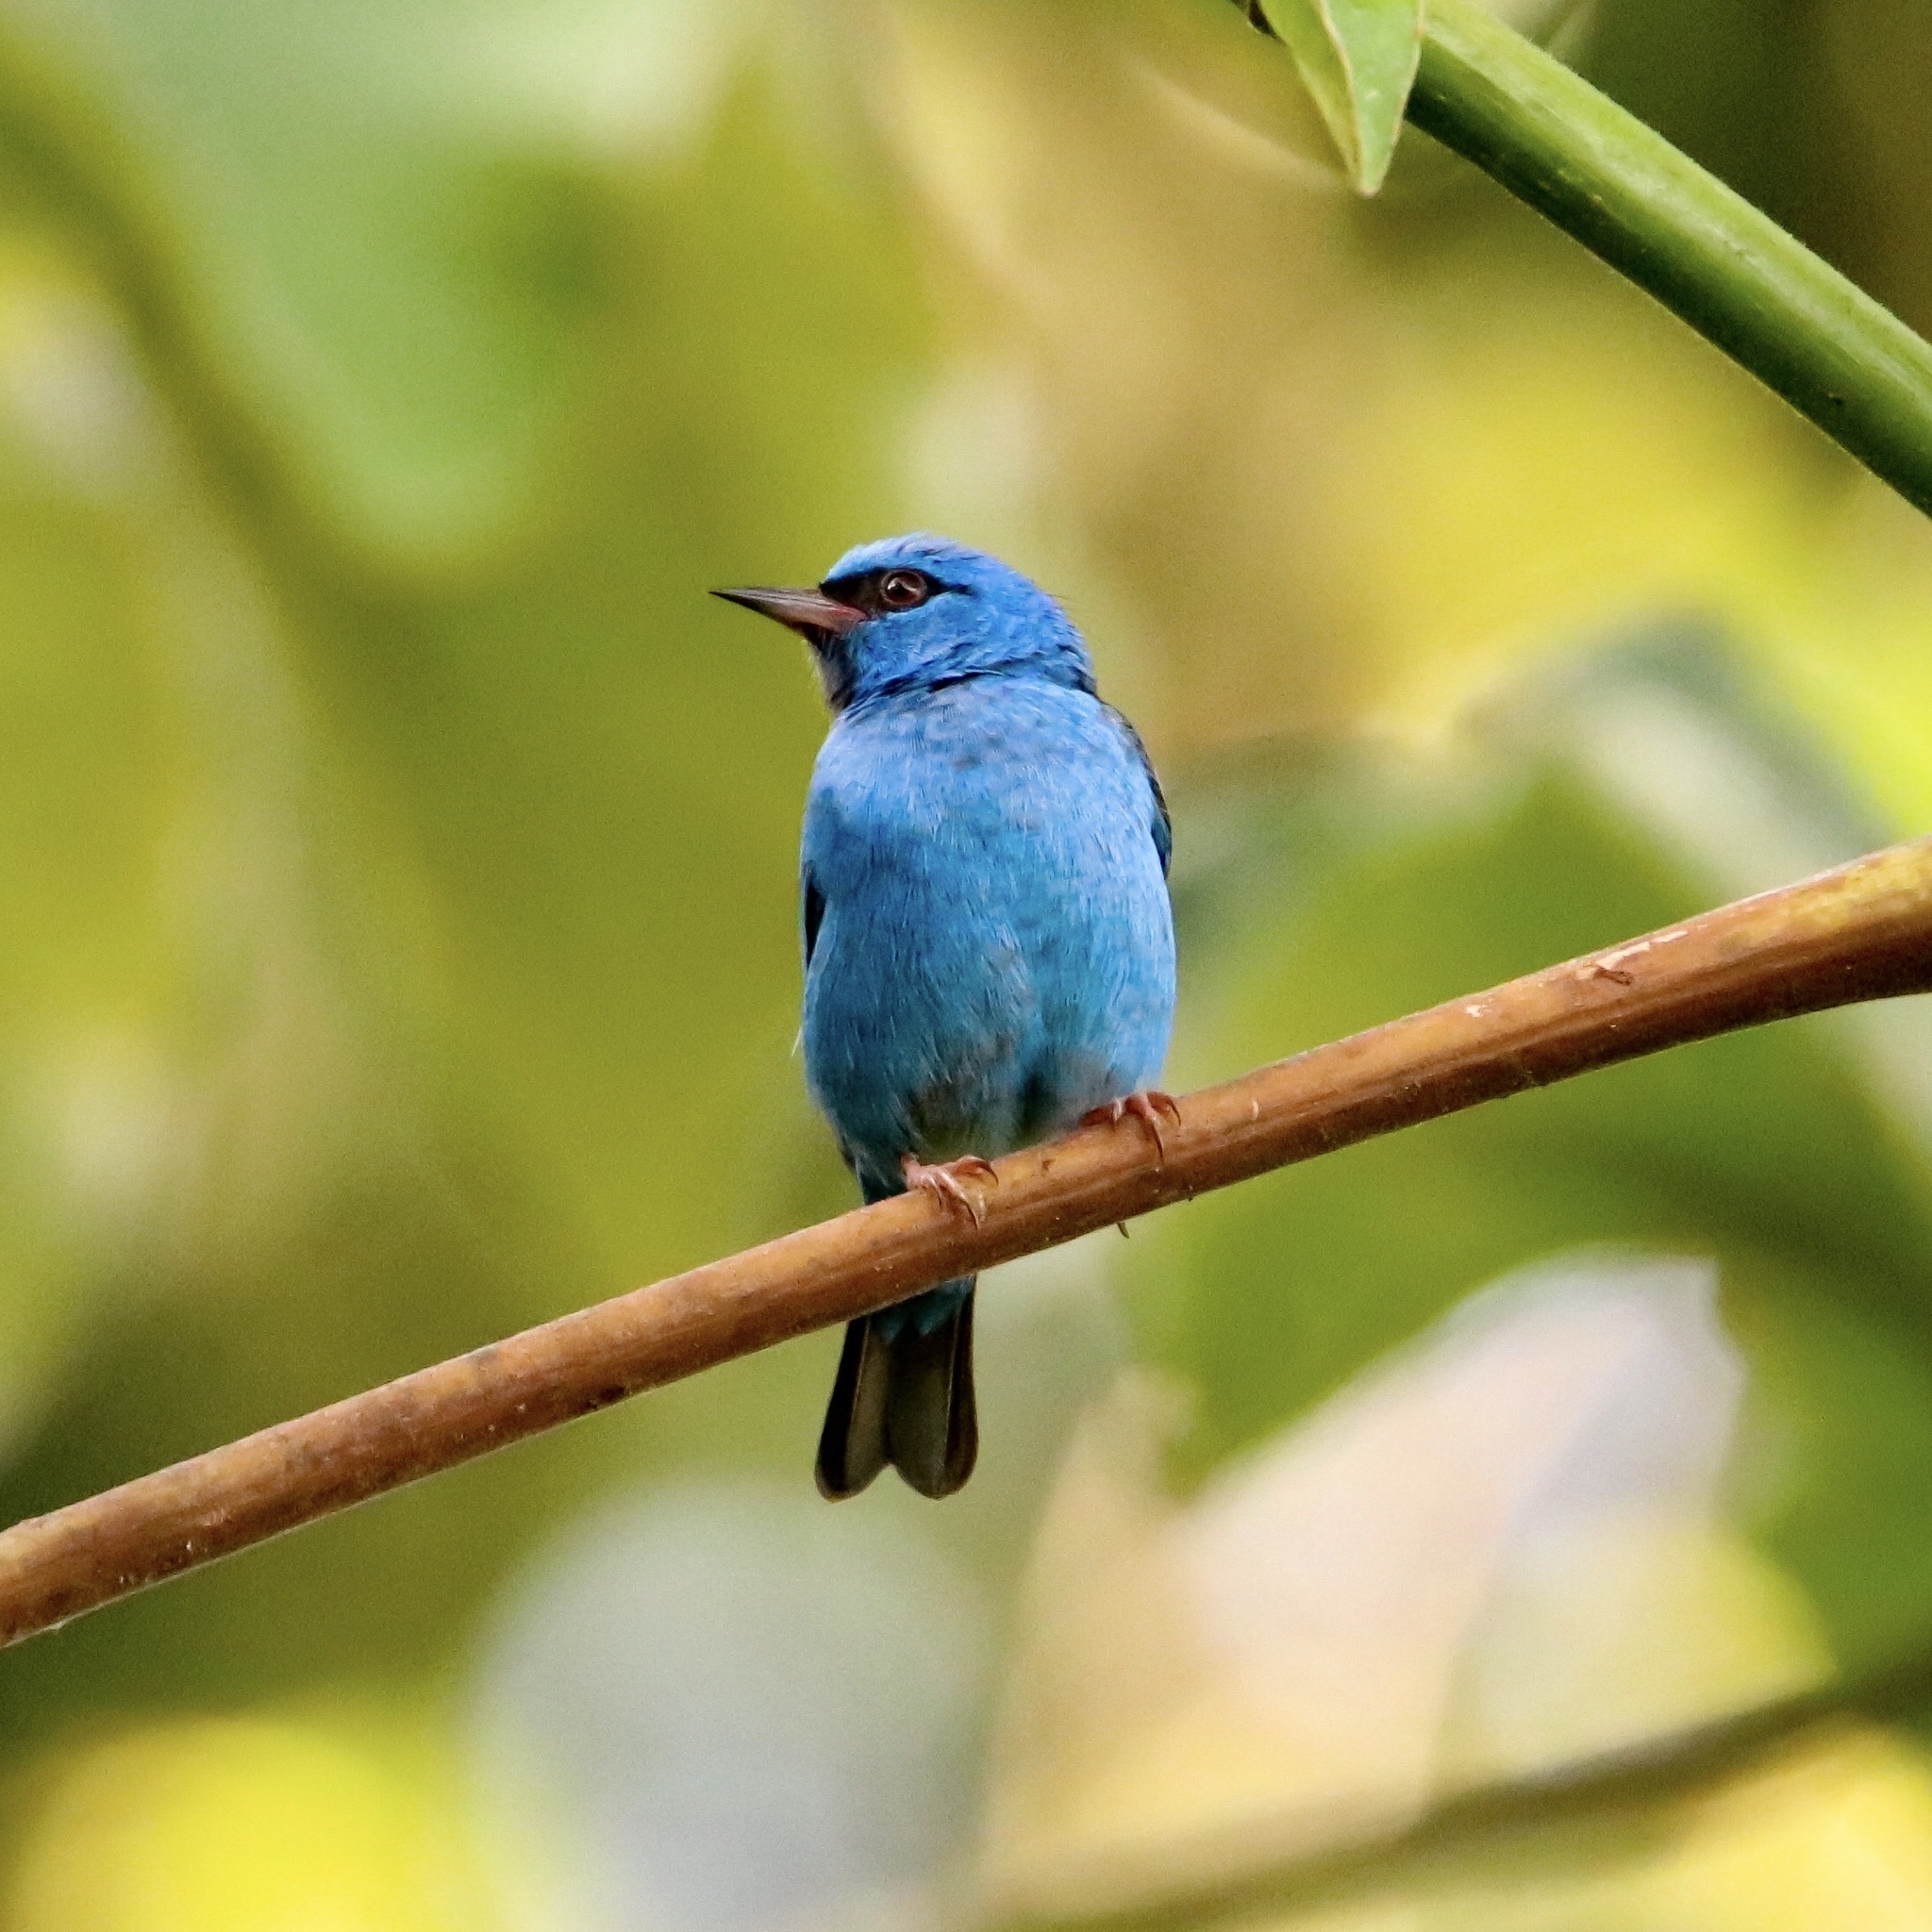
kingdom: Animalia
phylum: Chordata
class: Aves
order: Passeriformes
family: Thraupidae
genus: Dacnis
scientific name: Dacnis cayana
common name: Blue dacnis
